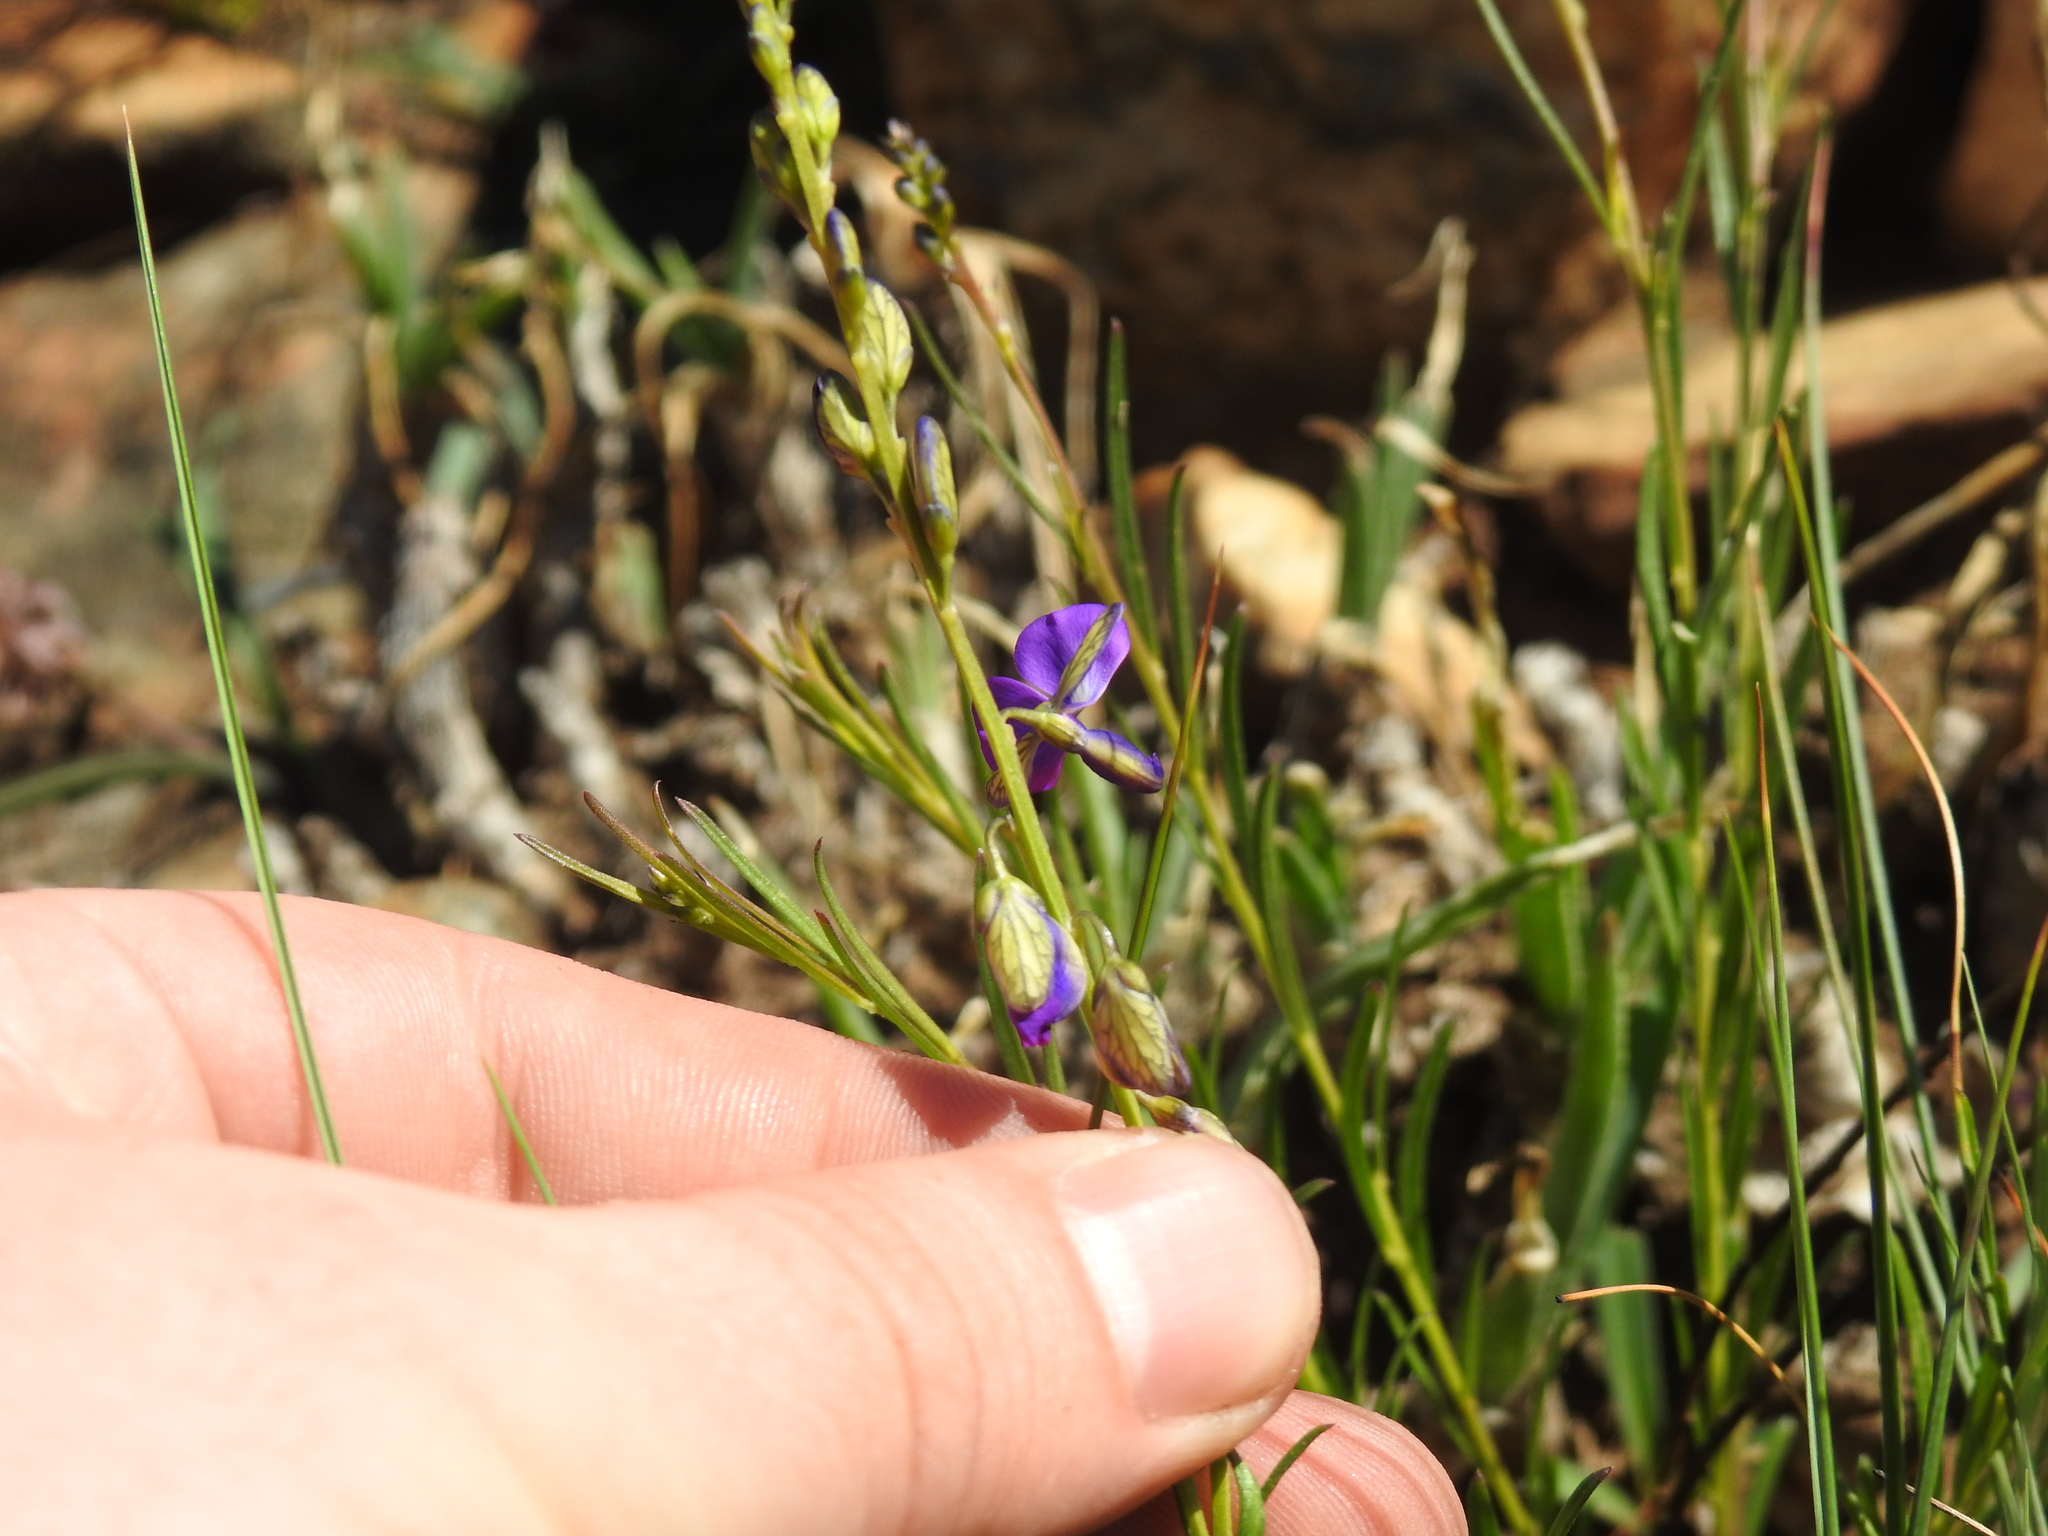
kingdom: Plantae
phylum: Tracheophyta
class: Magnoliopsida
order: Fabales
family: Polygalaceae
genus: Polygala
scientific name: Polygala uncinata
